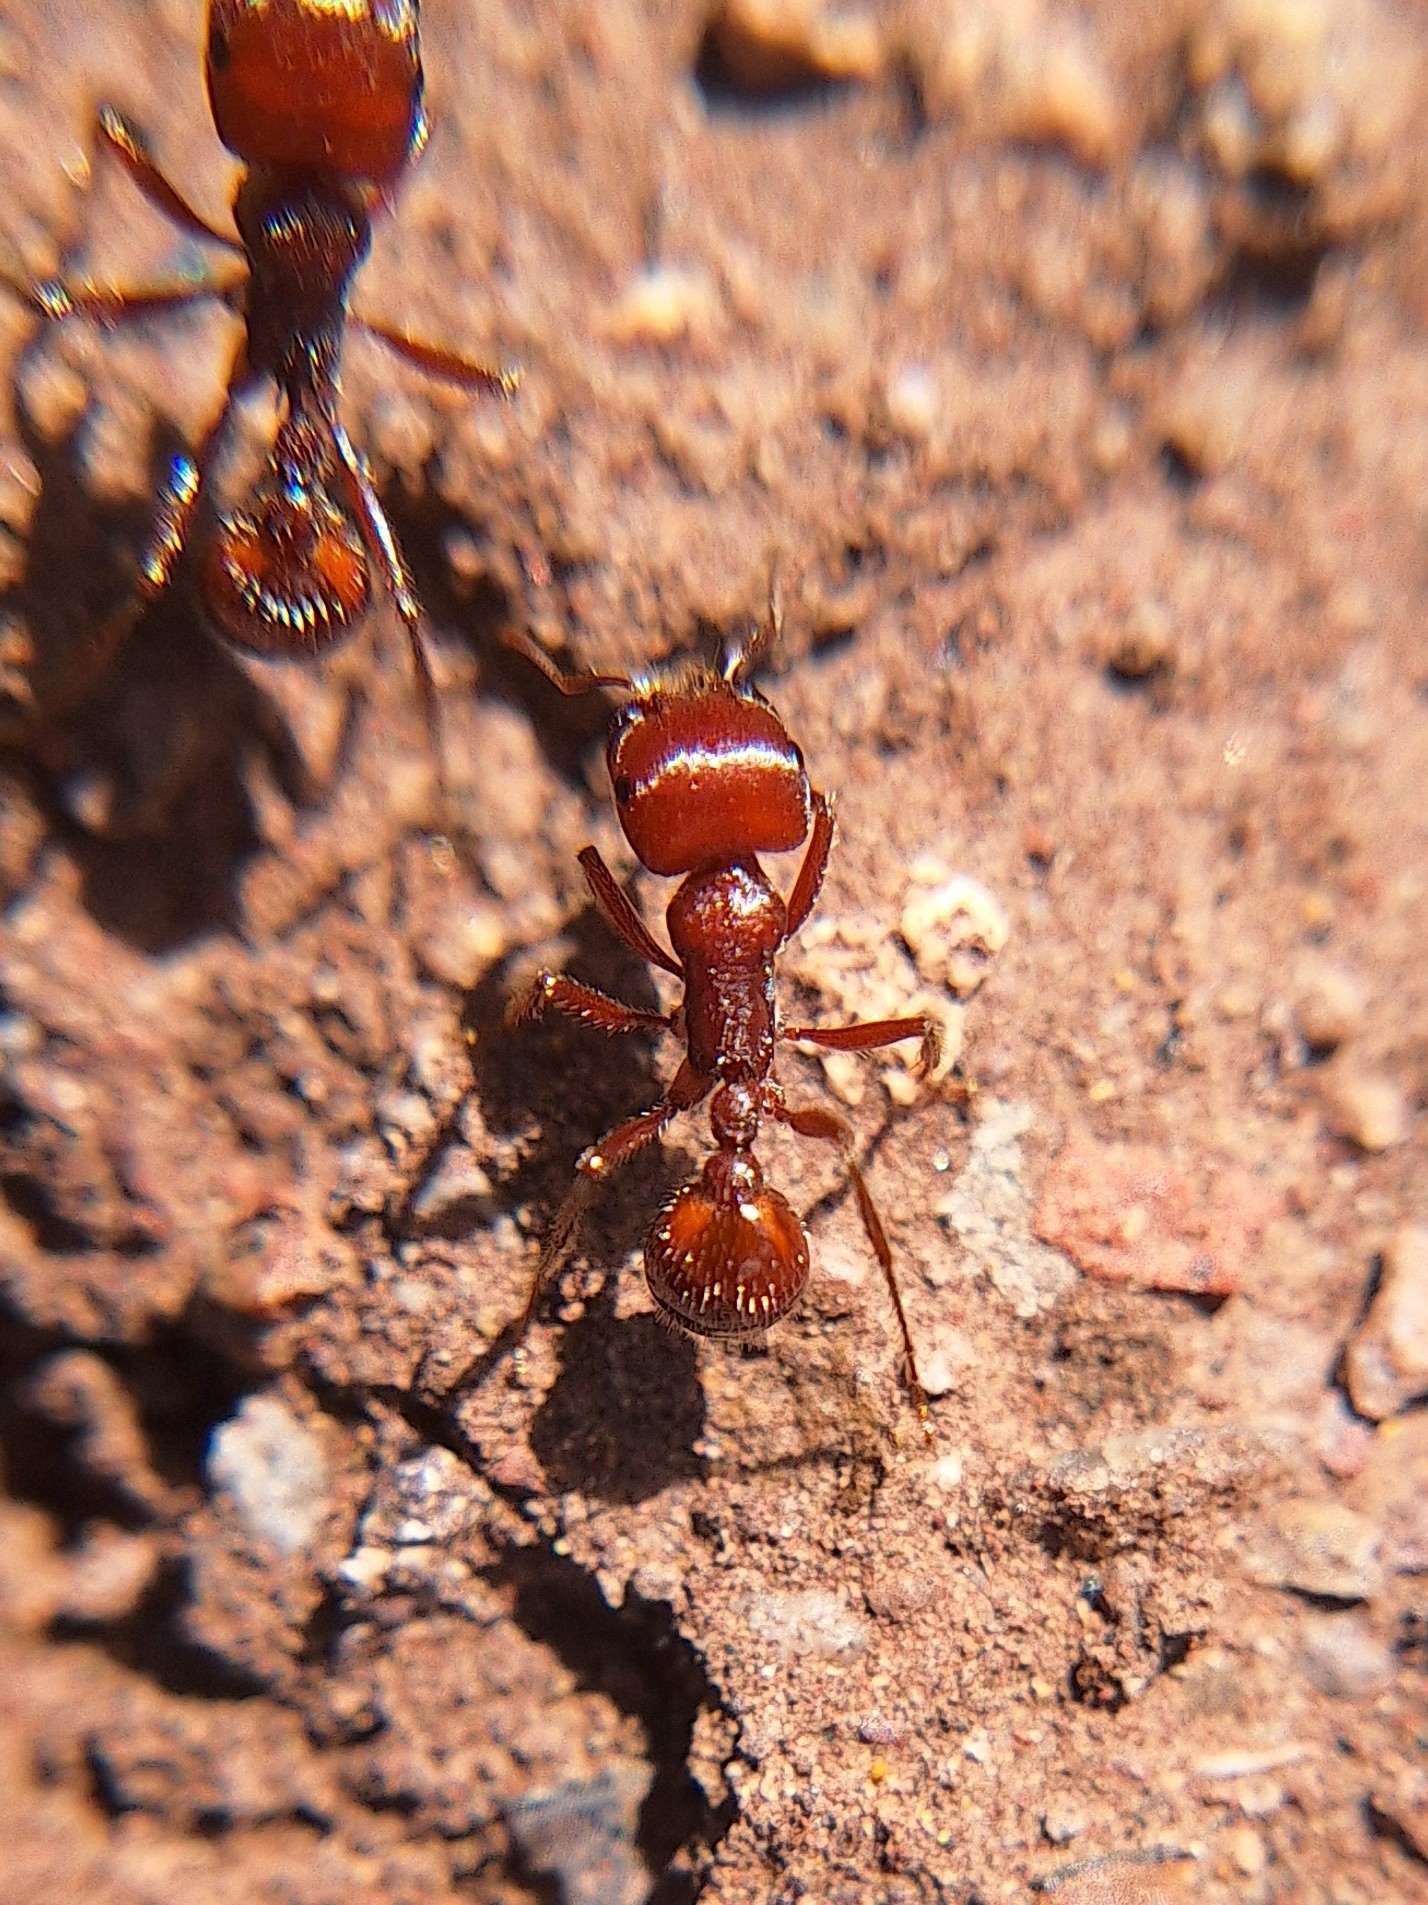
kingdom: Animalia
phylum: Arthropoda
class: Insecta
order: Hymenoptera
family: Formicidae
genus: Pogonomyrmex
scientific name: Pogonomyrmex barbatus
